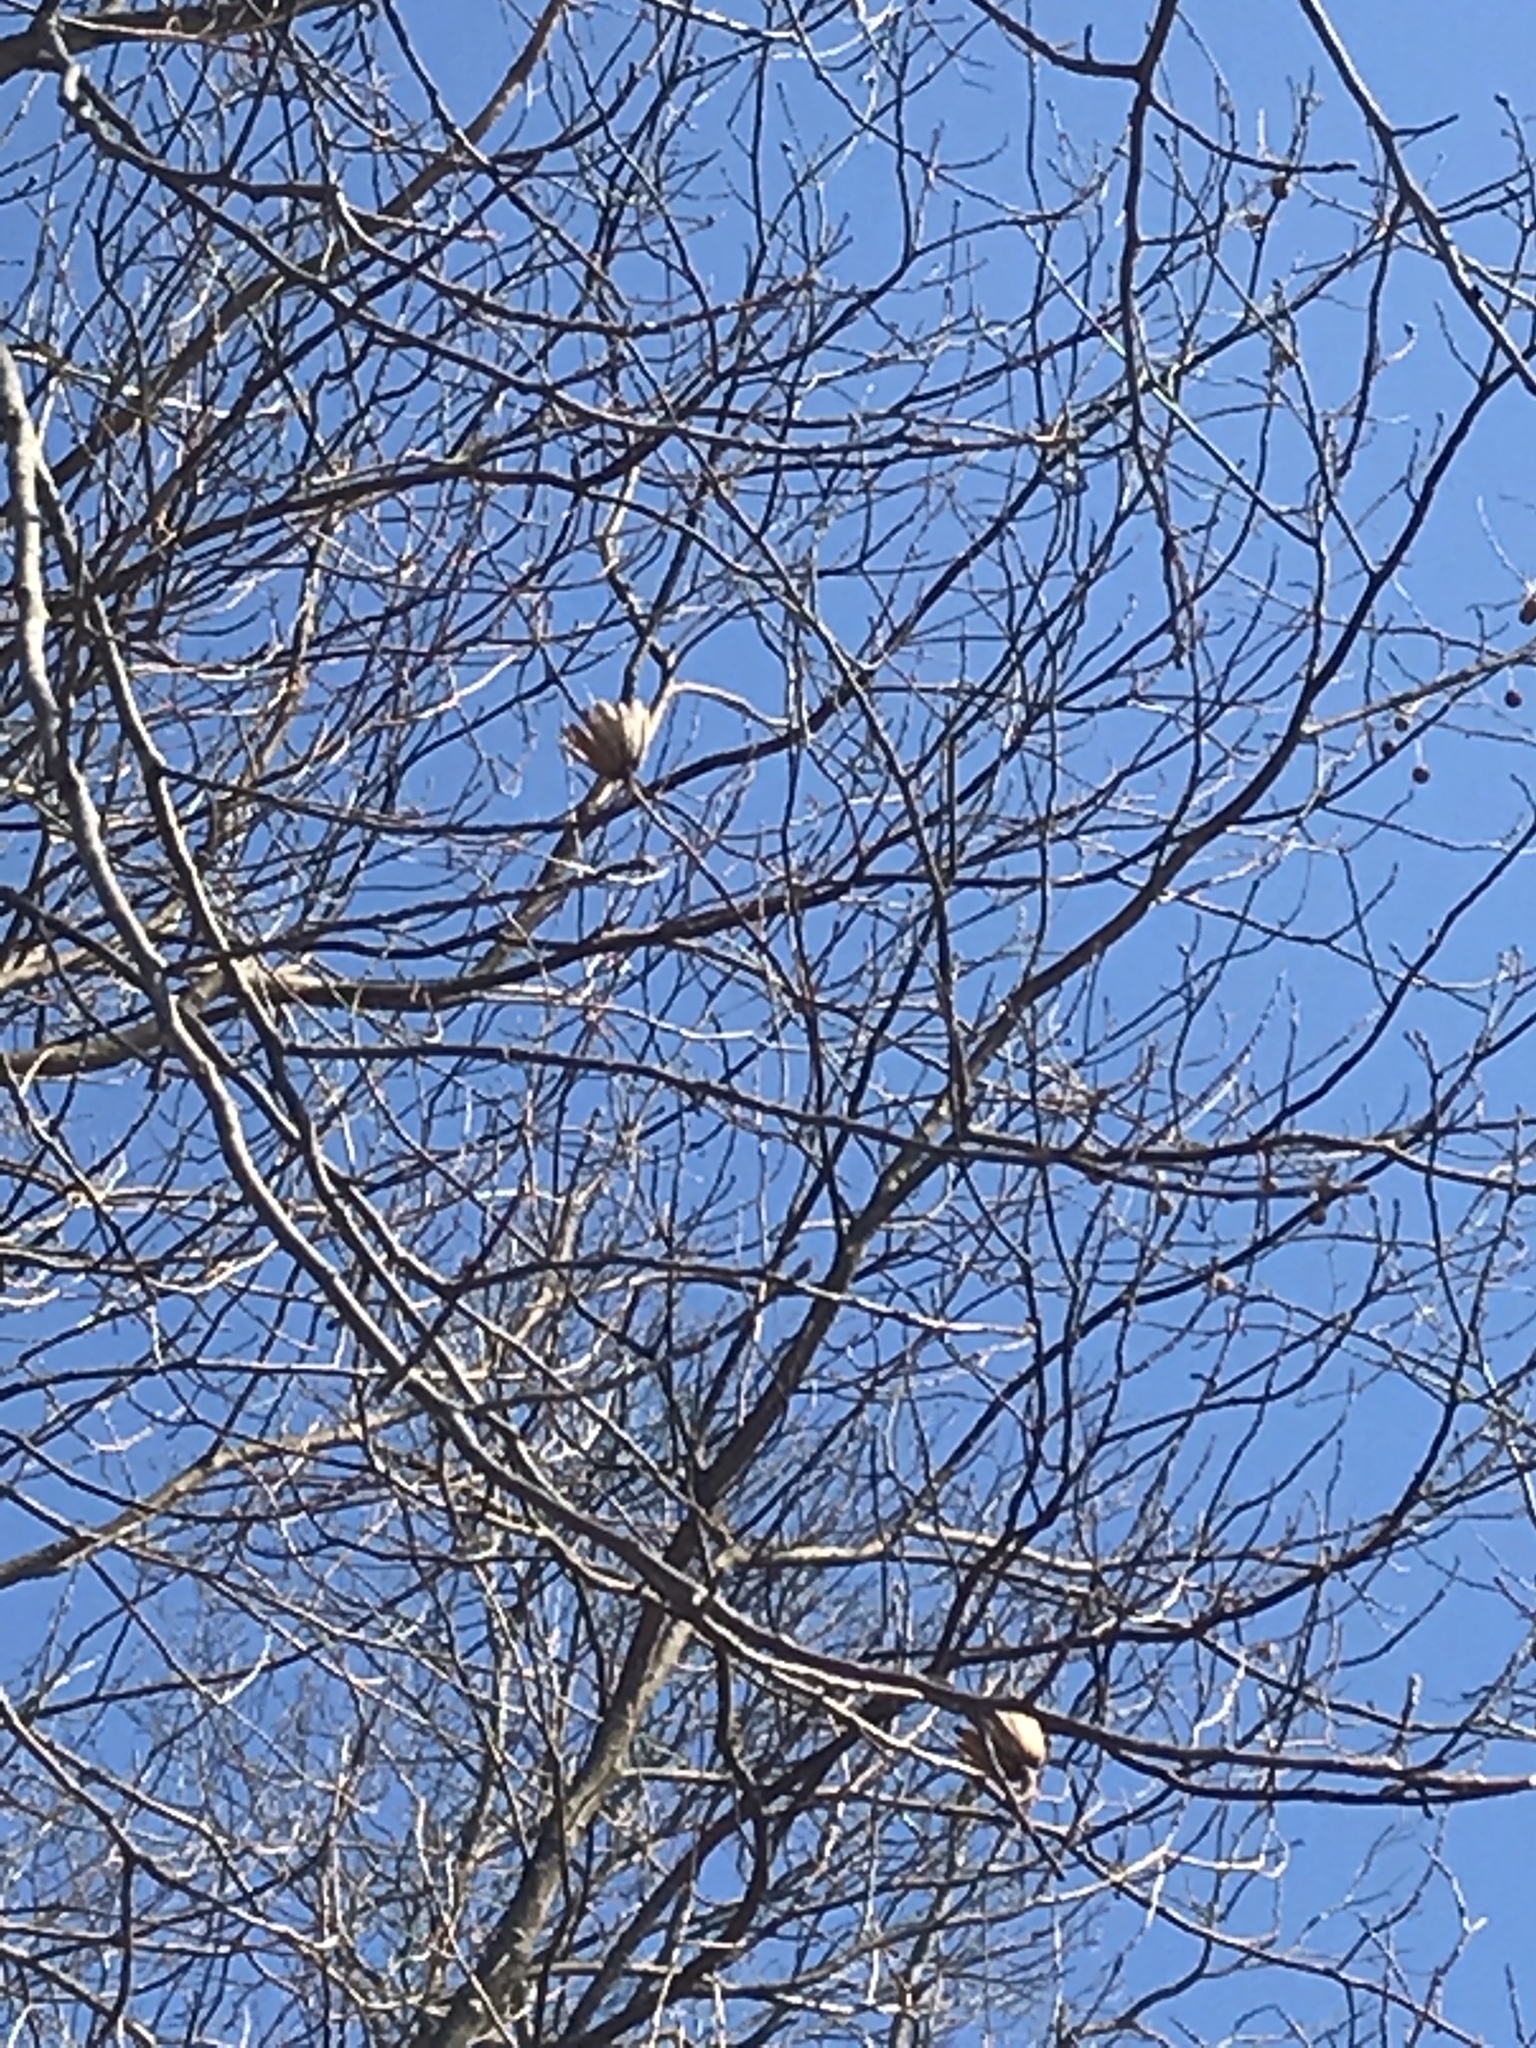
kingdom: Plantae
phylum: Tracheophyta
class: Magnoliopsida
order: Magnoliales
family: Magnoliaceae
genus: Liriodendron
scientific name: Liriodendron tulipifera
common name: Tulip tree
